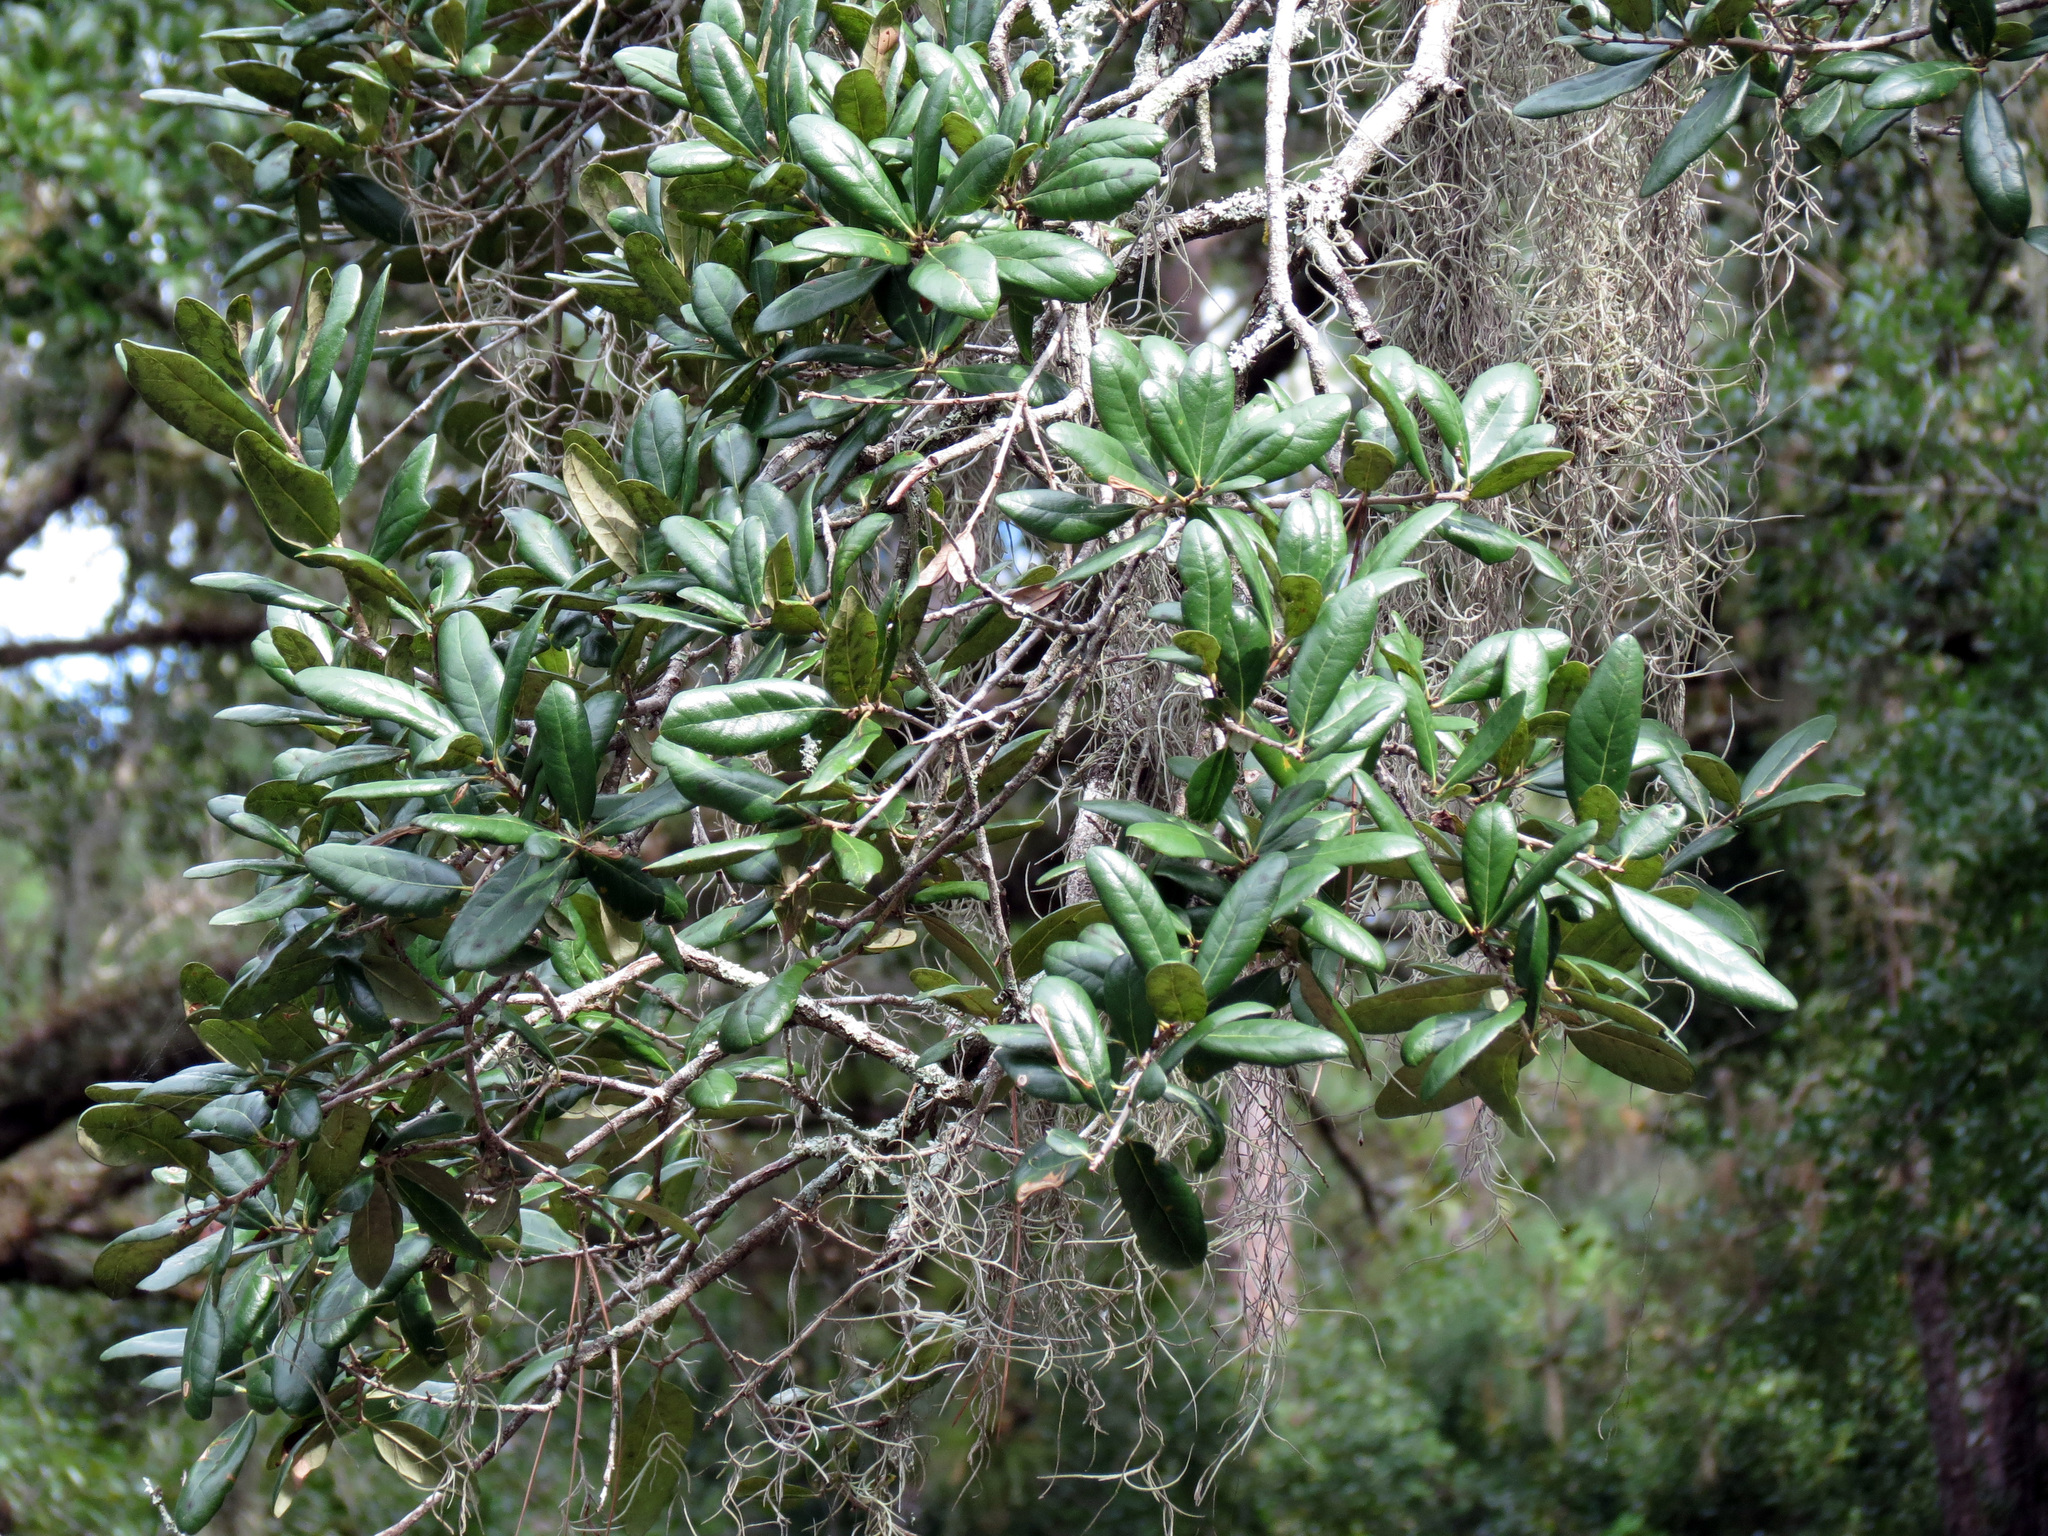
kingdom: Plantae
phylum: Tracheophyta
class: Magnoliopsida
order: Fagales
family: Fagaceae
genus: Quercus
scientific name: Quercus virginiana
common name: Southern live oak
